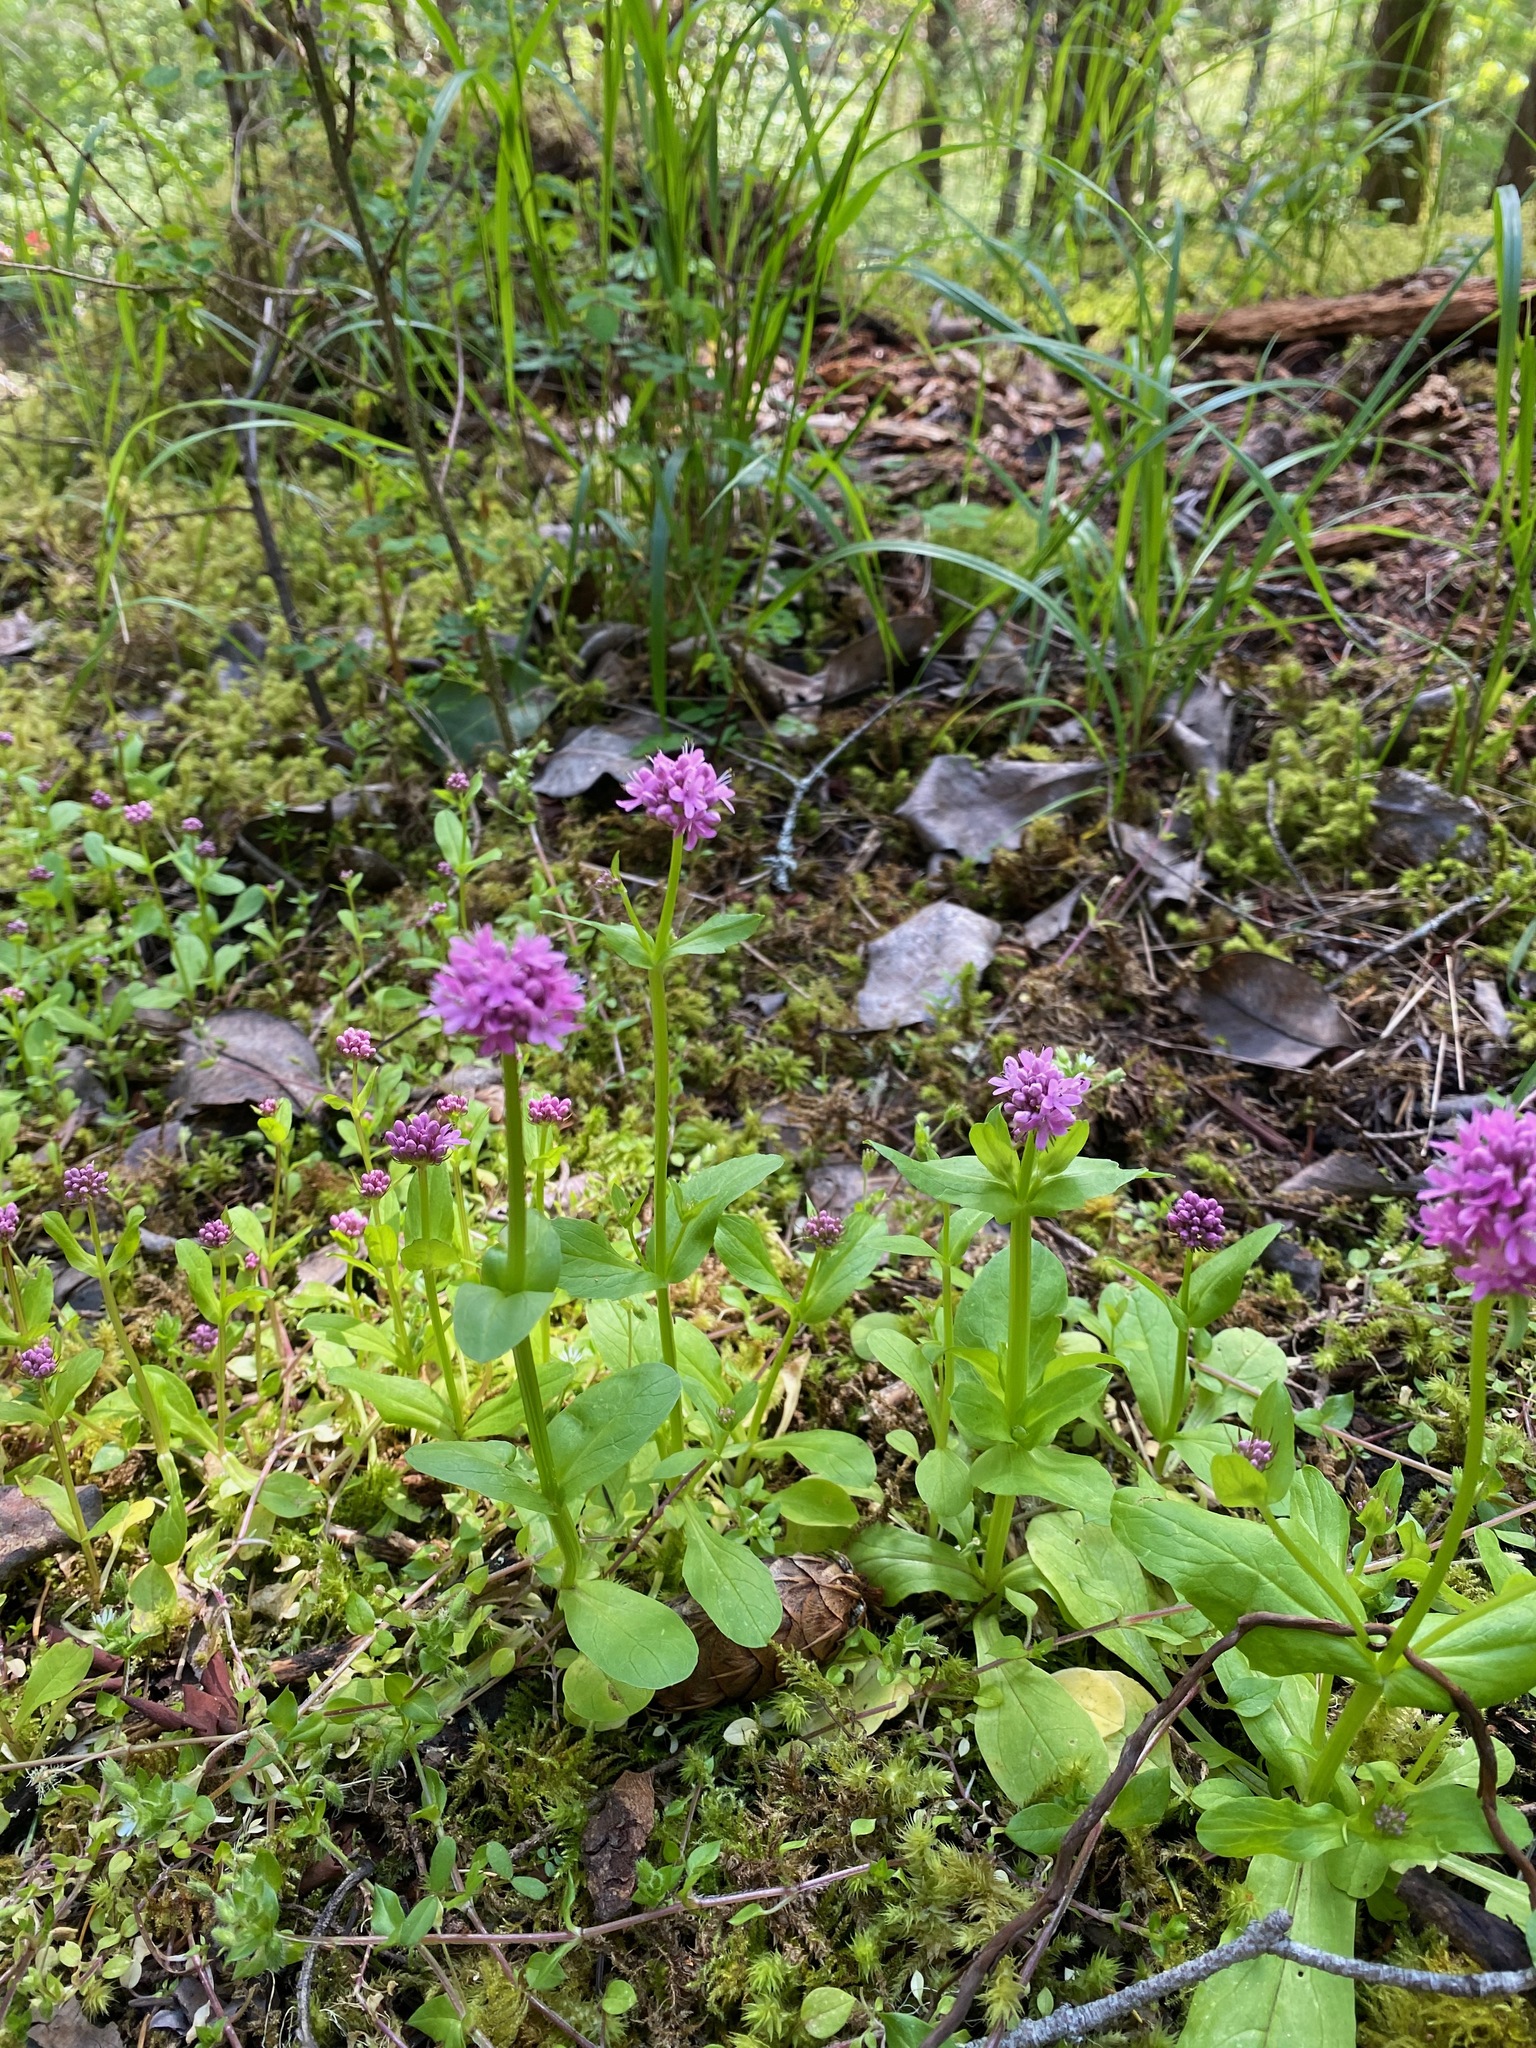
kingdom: Plantae
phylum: Tracheophyta
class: Magnoliopsida
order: Dipsacales
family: Caprifoliaceae
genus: Plectritis
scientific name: Plectritis congesta
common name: Pink plectritis
